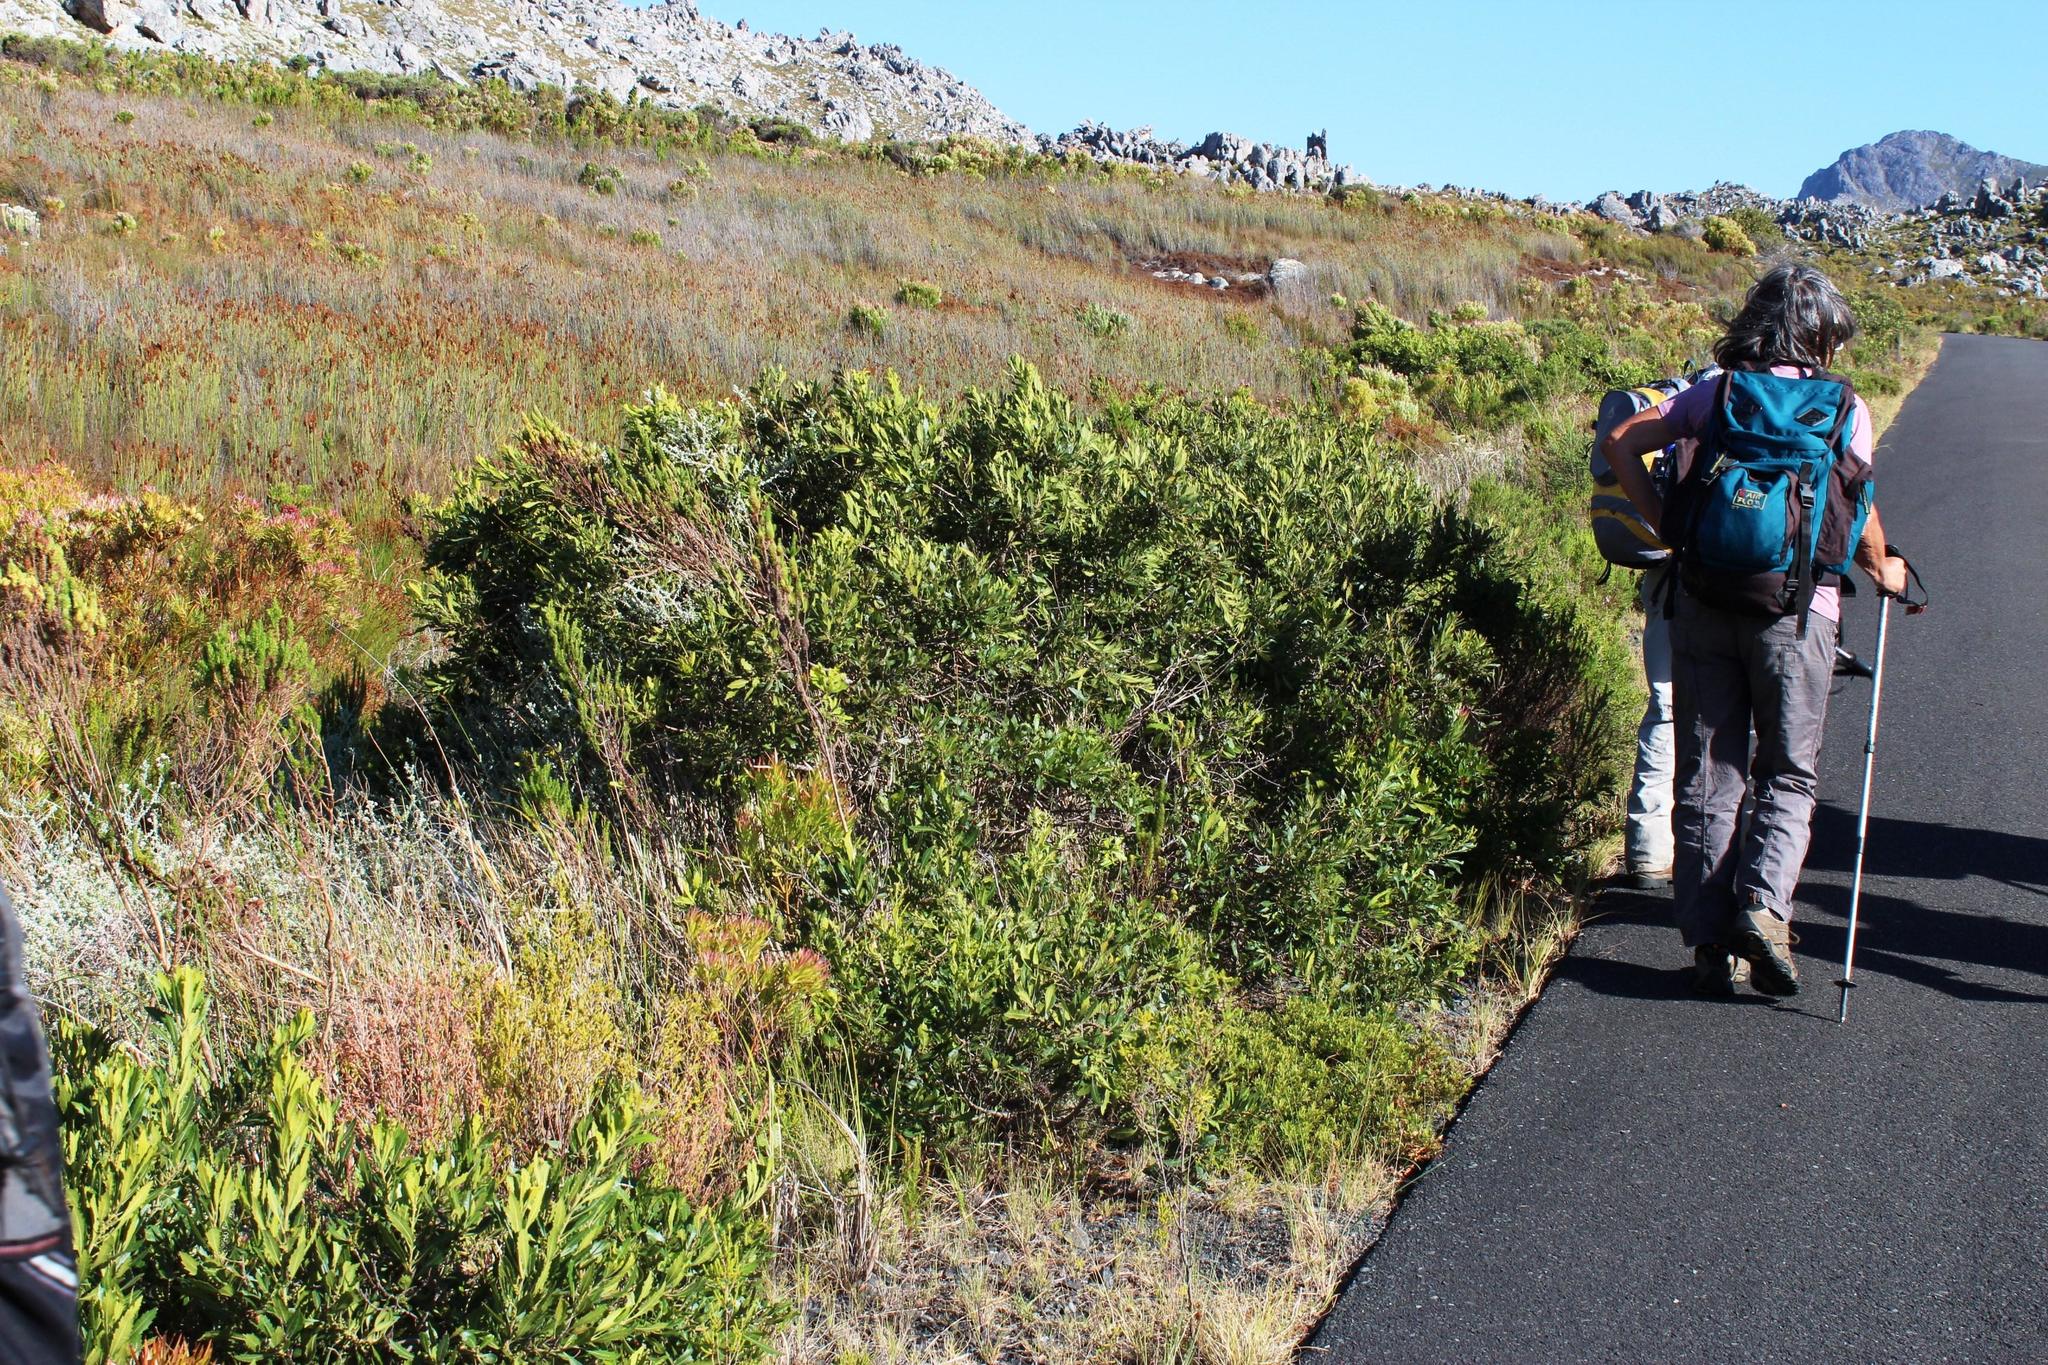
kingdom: Plantae
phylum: Tracheophyta
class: Magnoliopsida
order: Fagales
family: Myricaceae
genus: Morella
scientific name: Morella serrata
